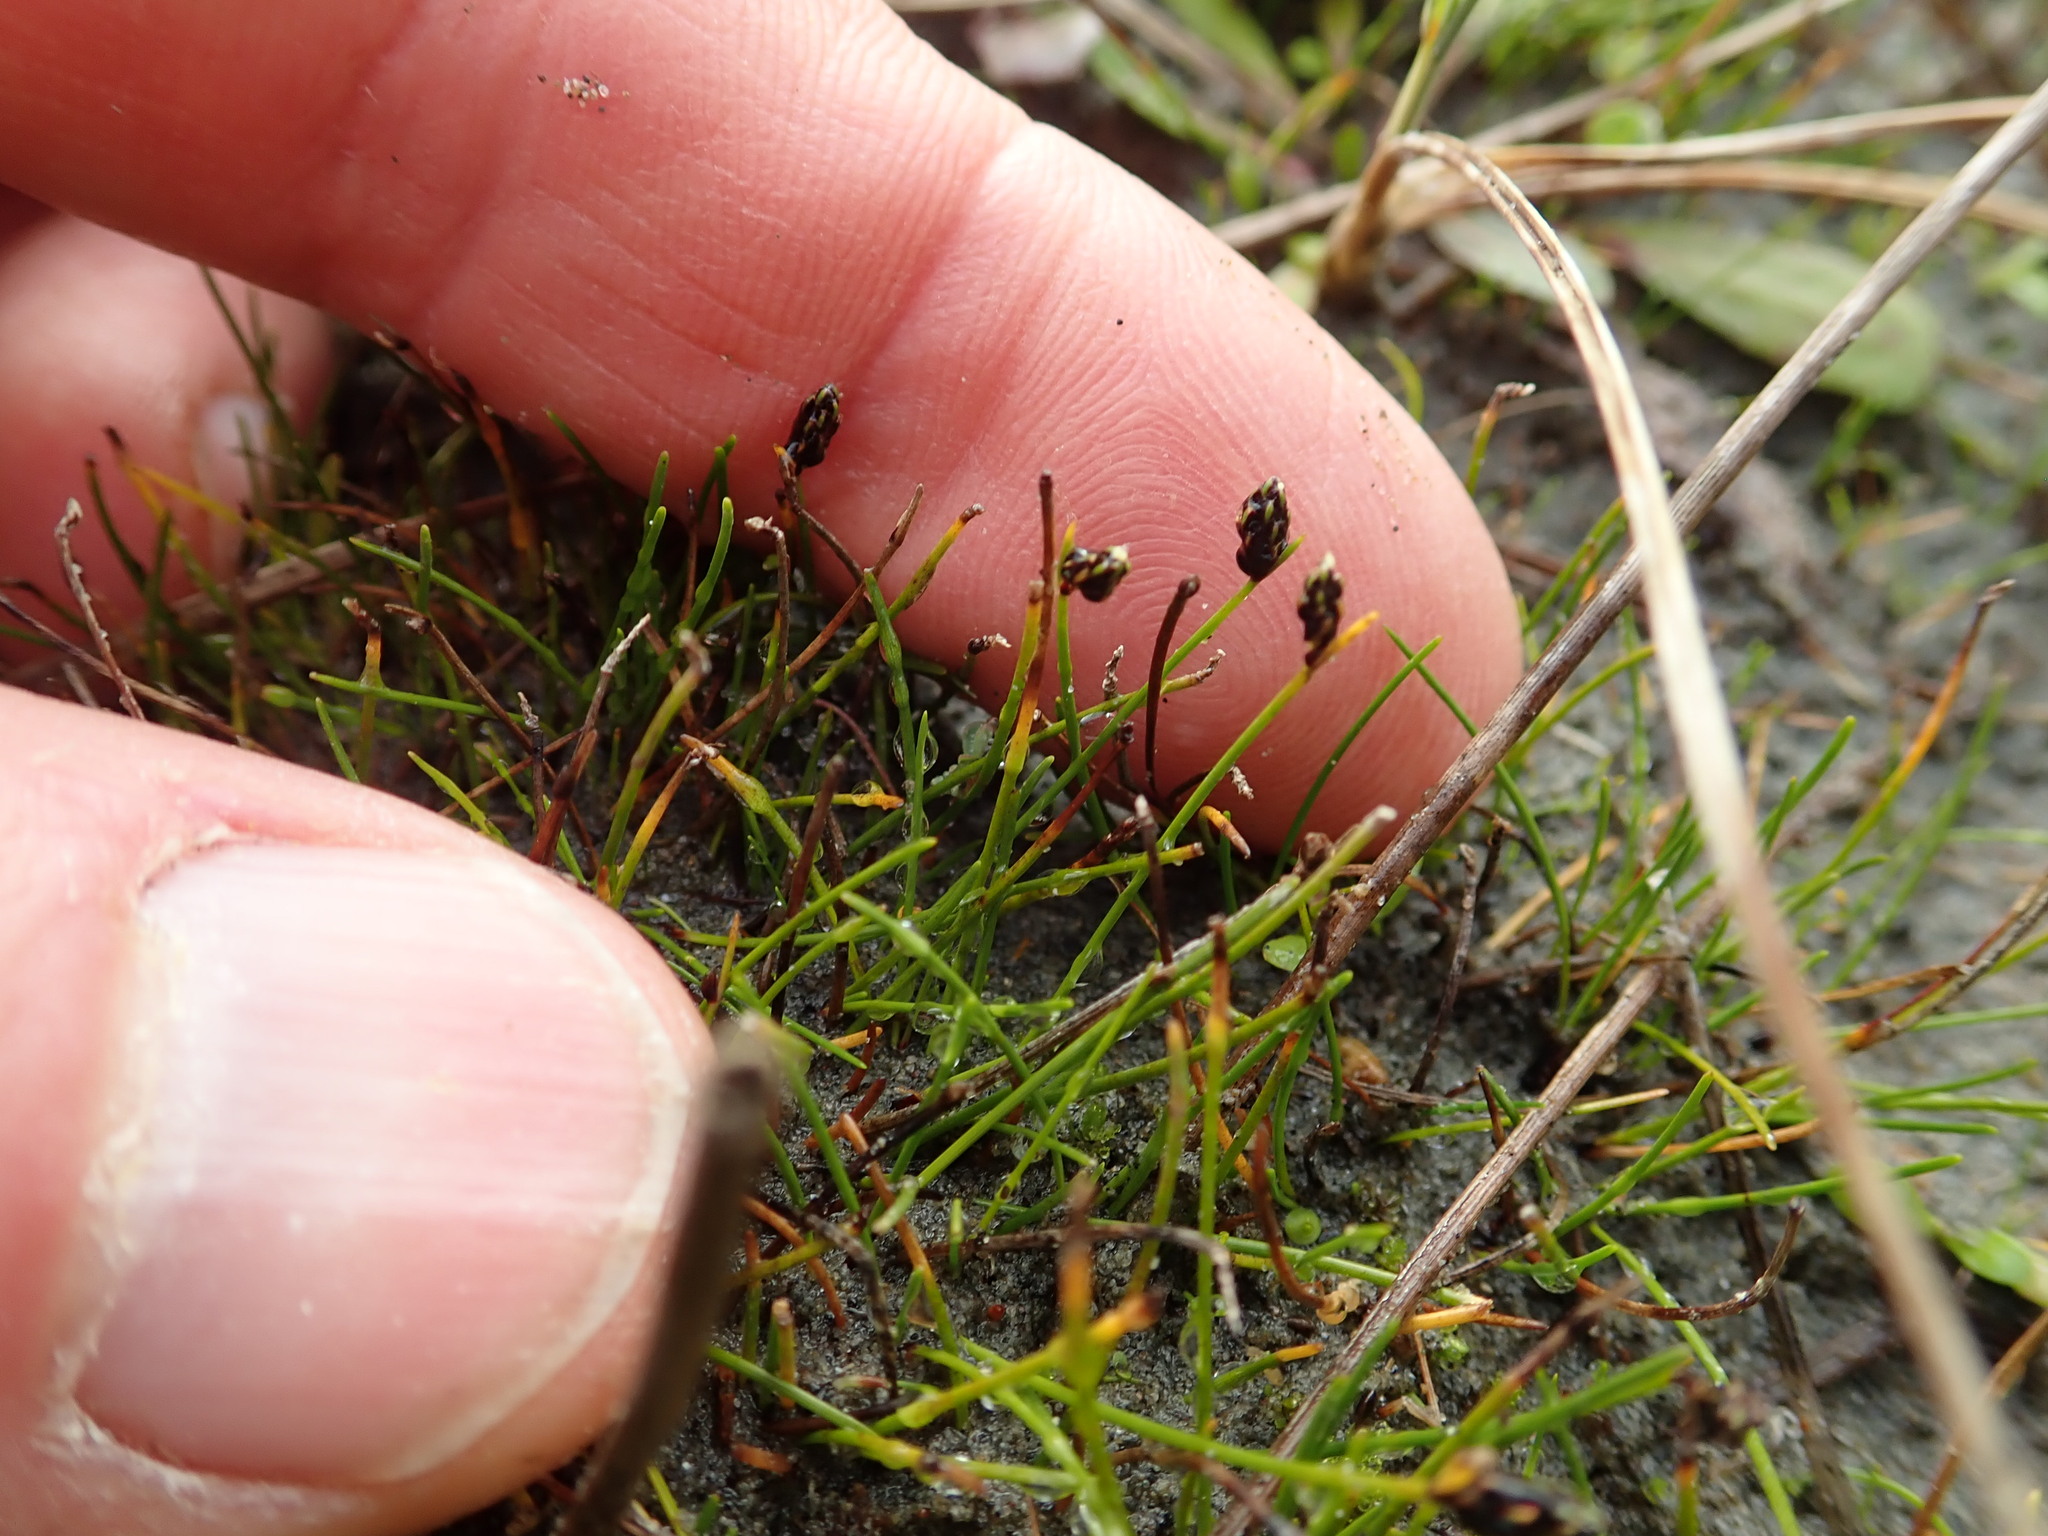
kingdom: Plantae
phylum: Tracheophyta
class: Liliopsida
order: Poales
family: Cyperaceae
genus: Isolepis
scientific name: Isolepis cernua
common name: Slender club-rush
